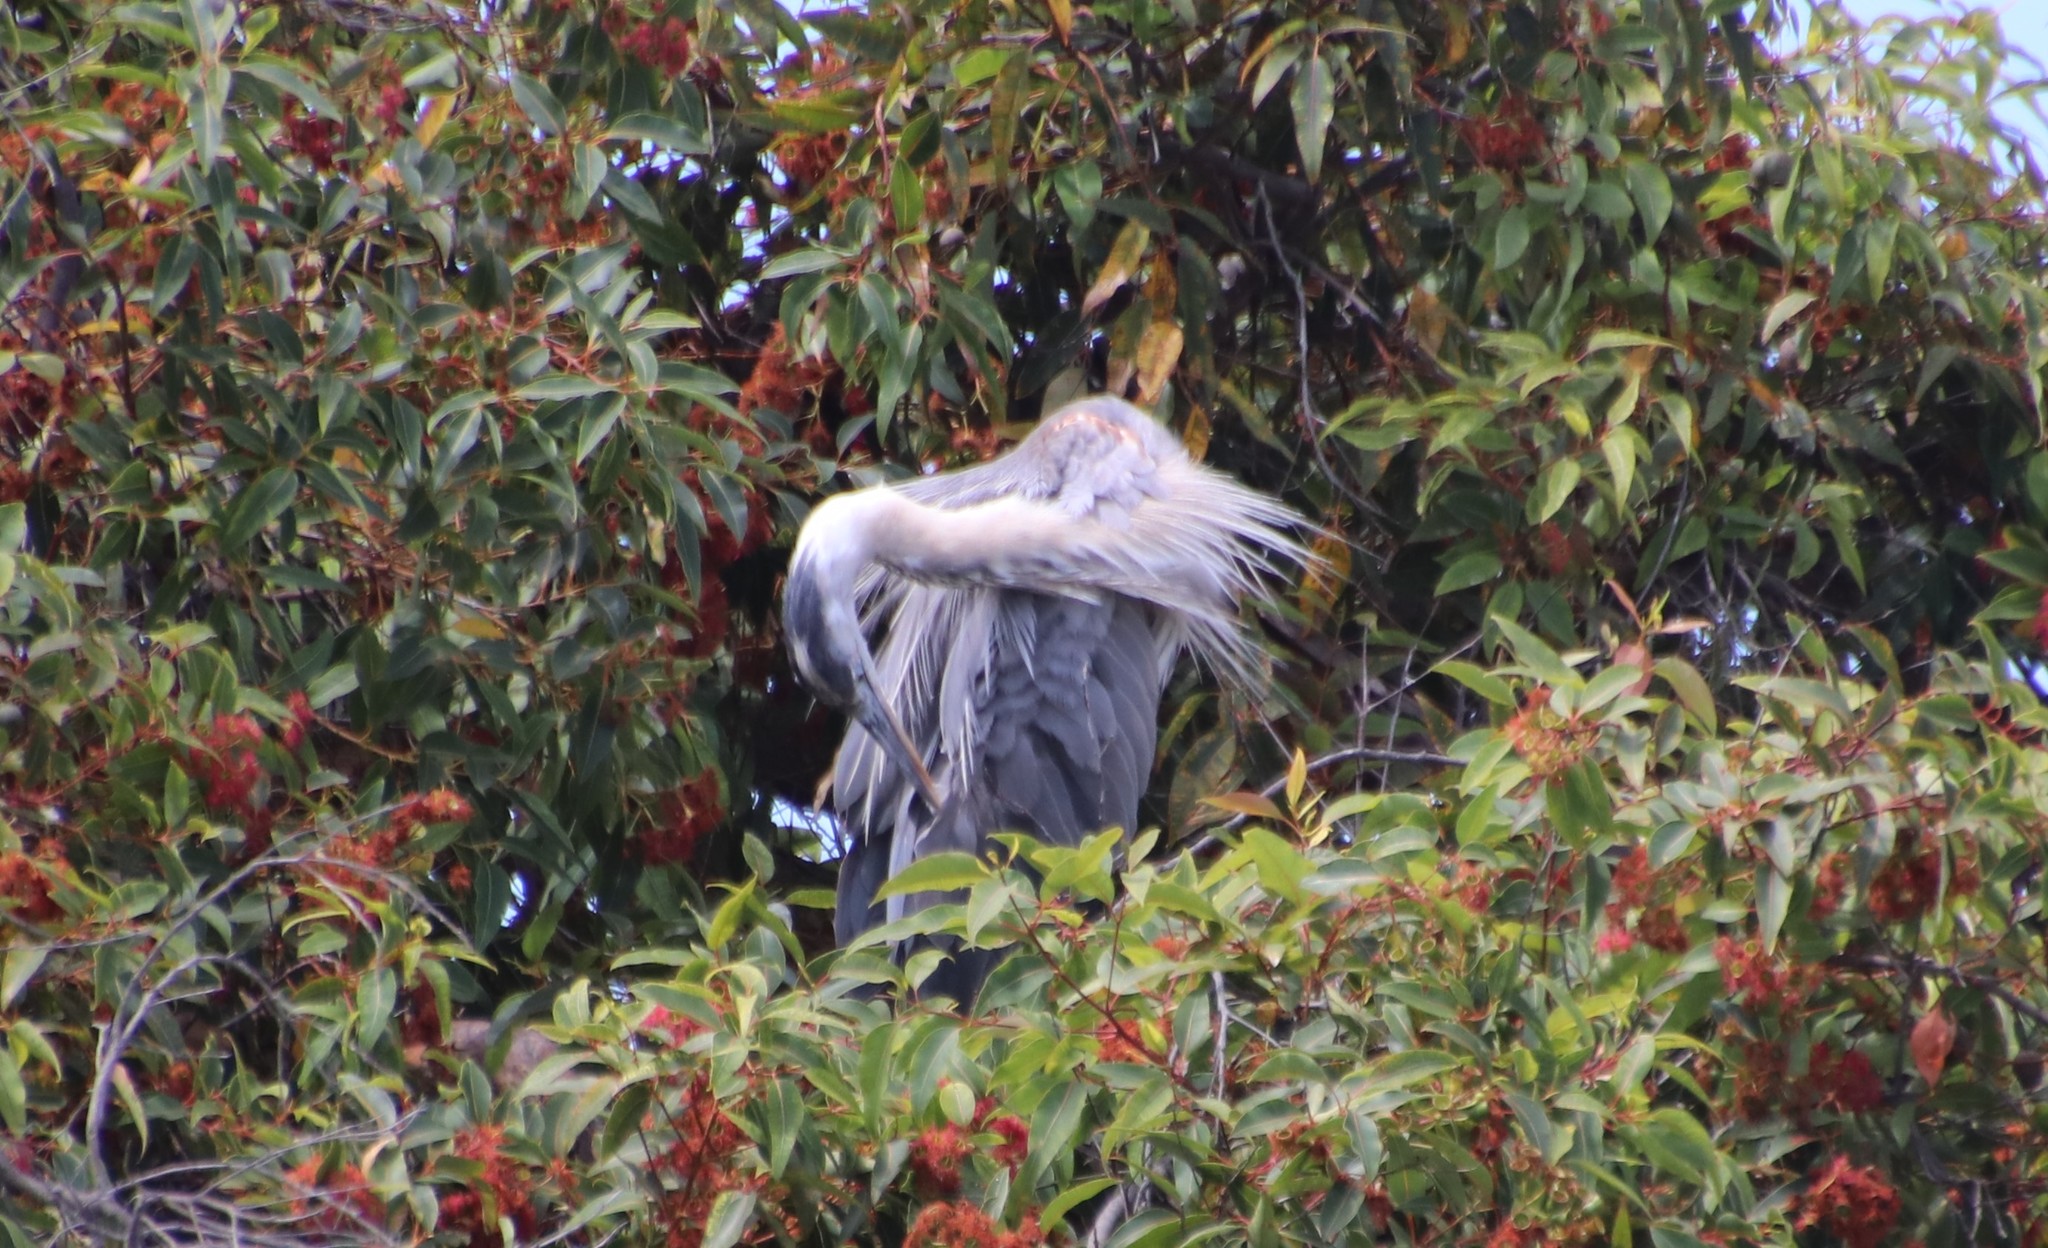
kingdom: Animalia
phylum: Chordata
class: Aves
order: Pelecaniformes
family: Ardeidae
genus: Ardea
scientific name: Ardea herodias
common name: Great blue heron
